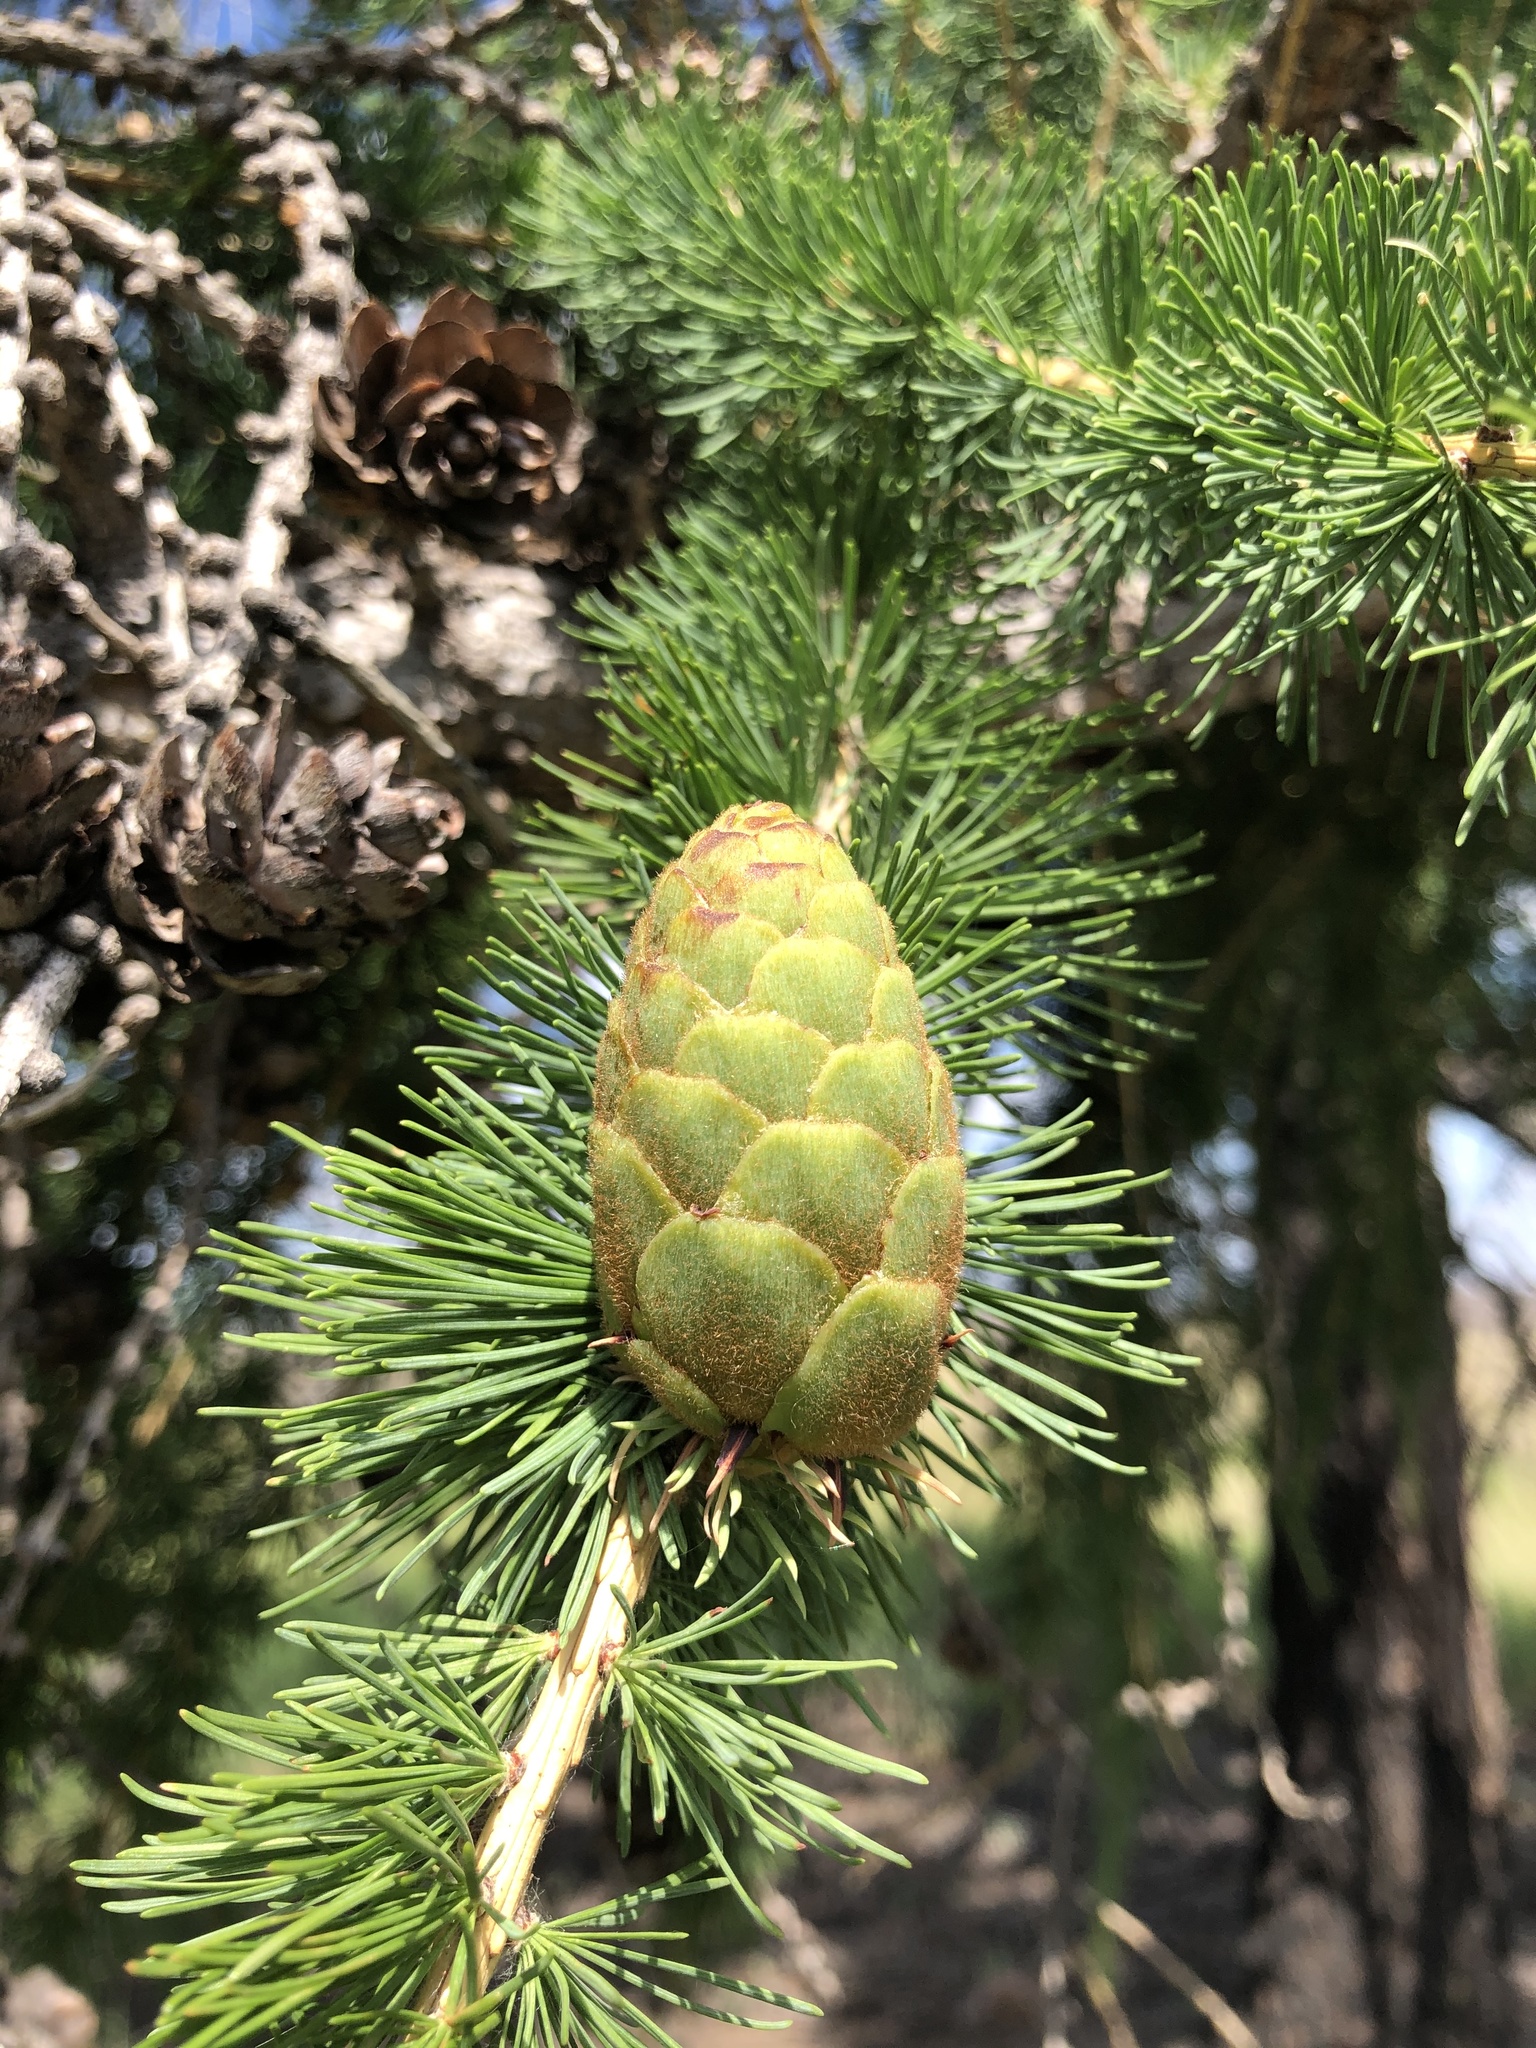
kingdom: Plantae
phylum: Tracheophyta
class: Pinopsida
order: Pinales
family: Pinaceae
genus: Larix
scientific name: Larix sibirica
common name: Siberian larch
